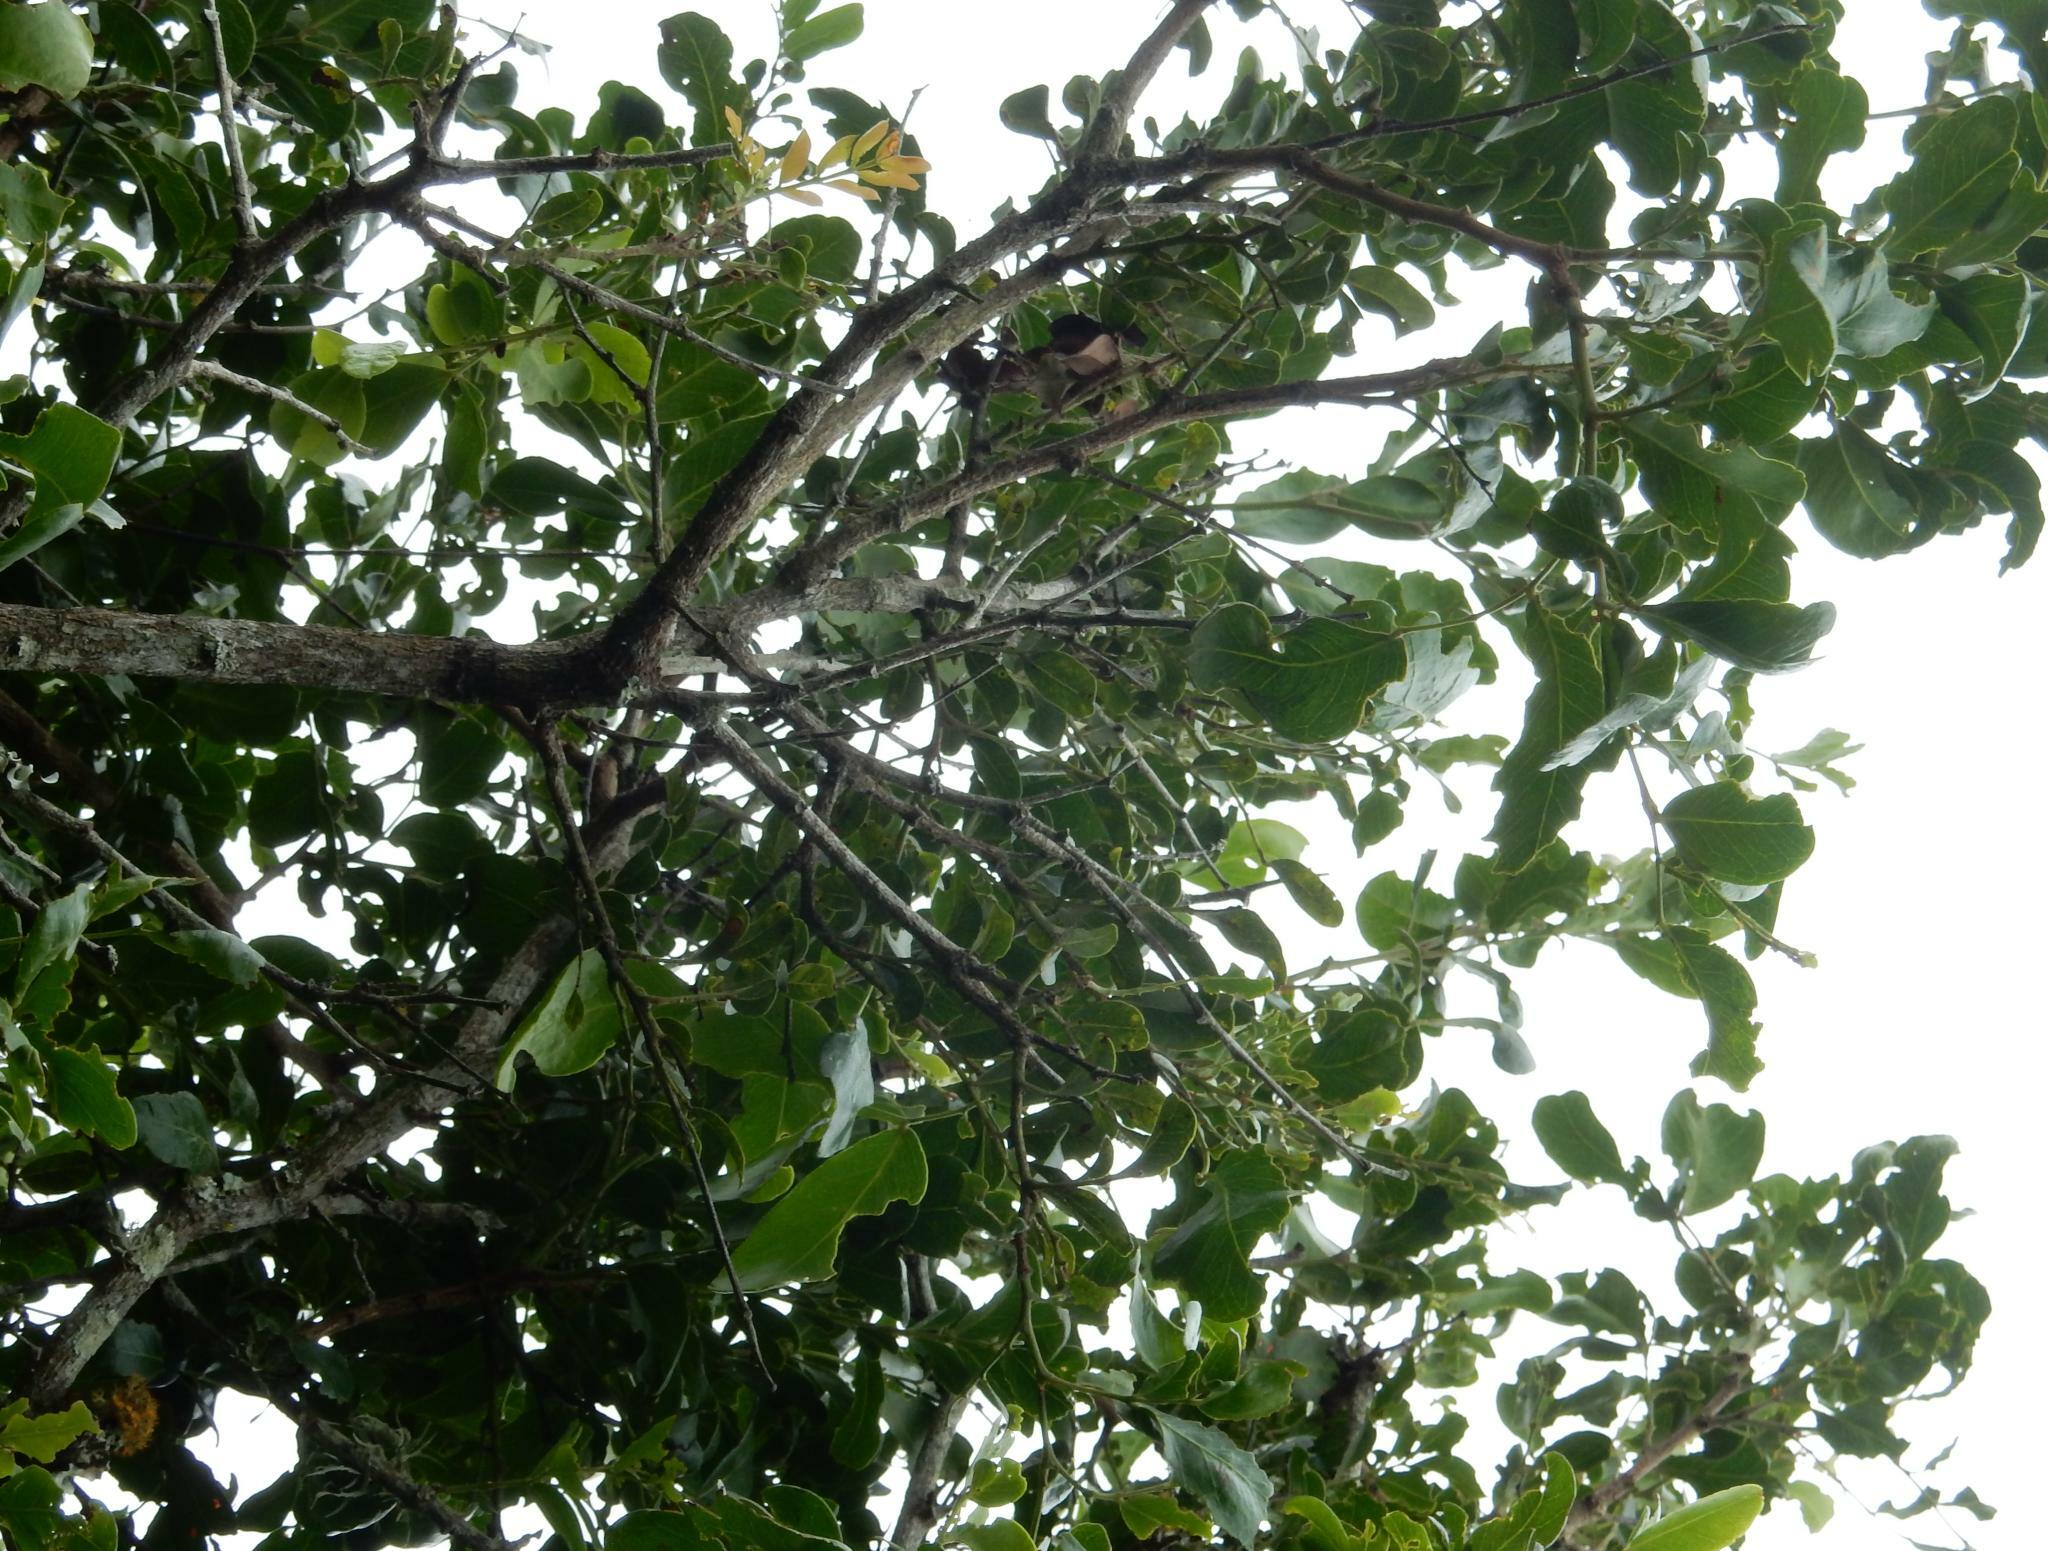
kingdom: Plantae
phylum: Tracheophyta
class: Magnoliopsida
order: Fabales
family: Fabaceae
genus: Schotia
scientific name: Schotia latifolia
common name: Bush boer-bean
